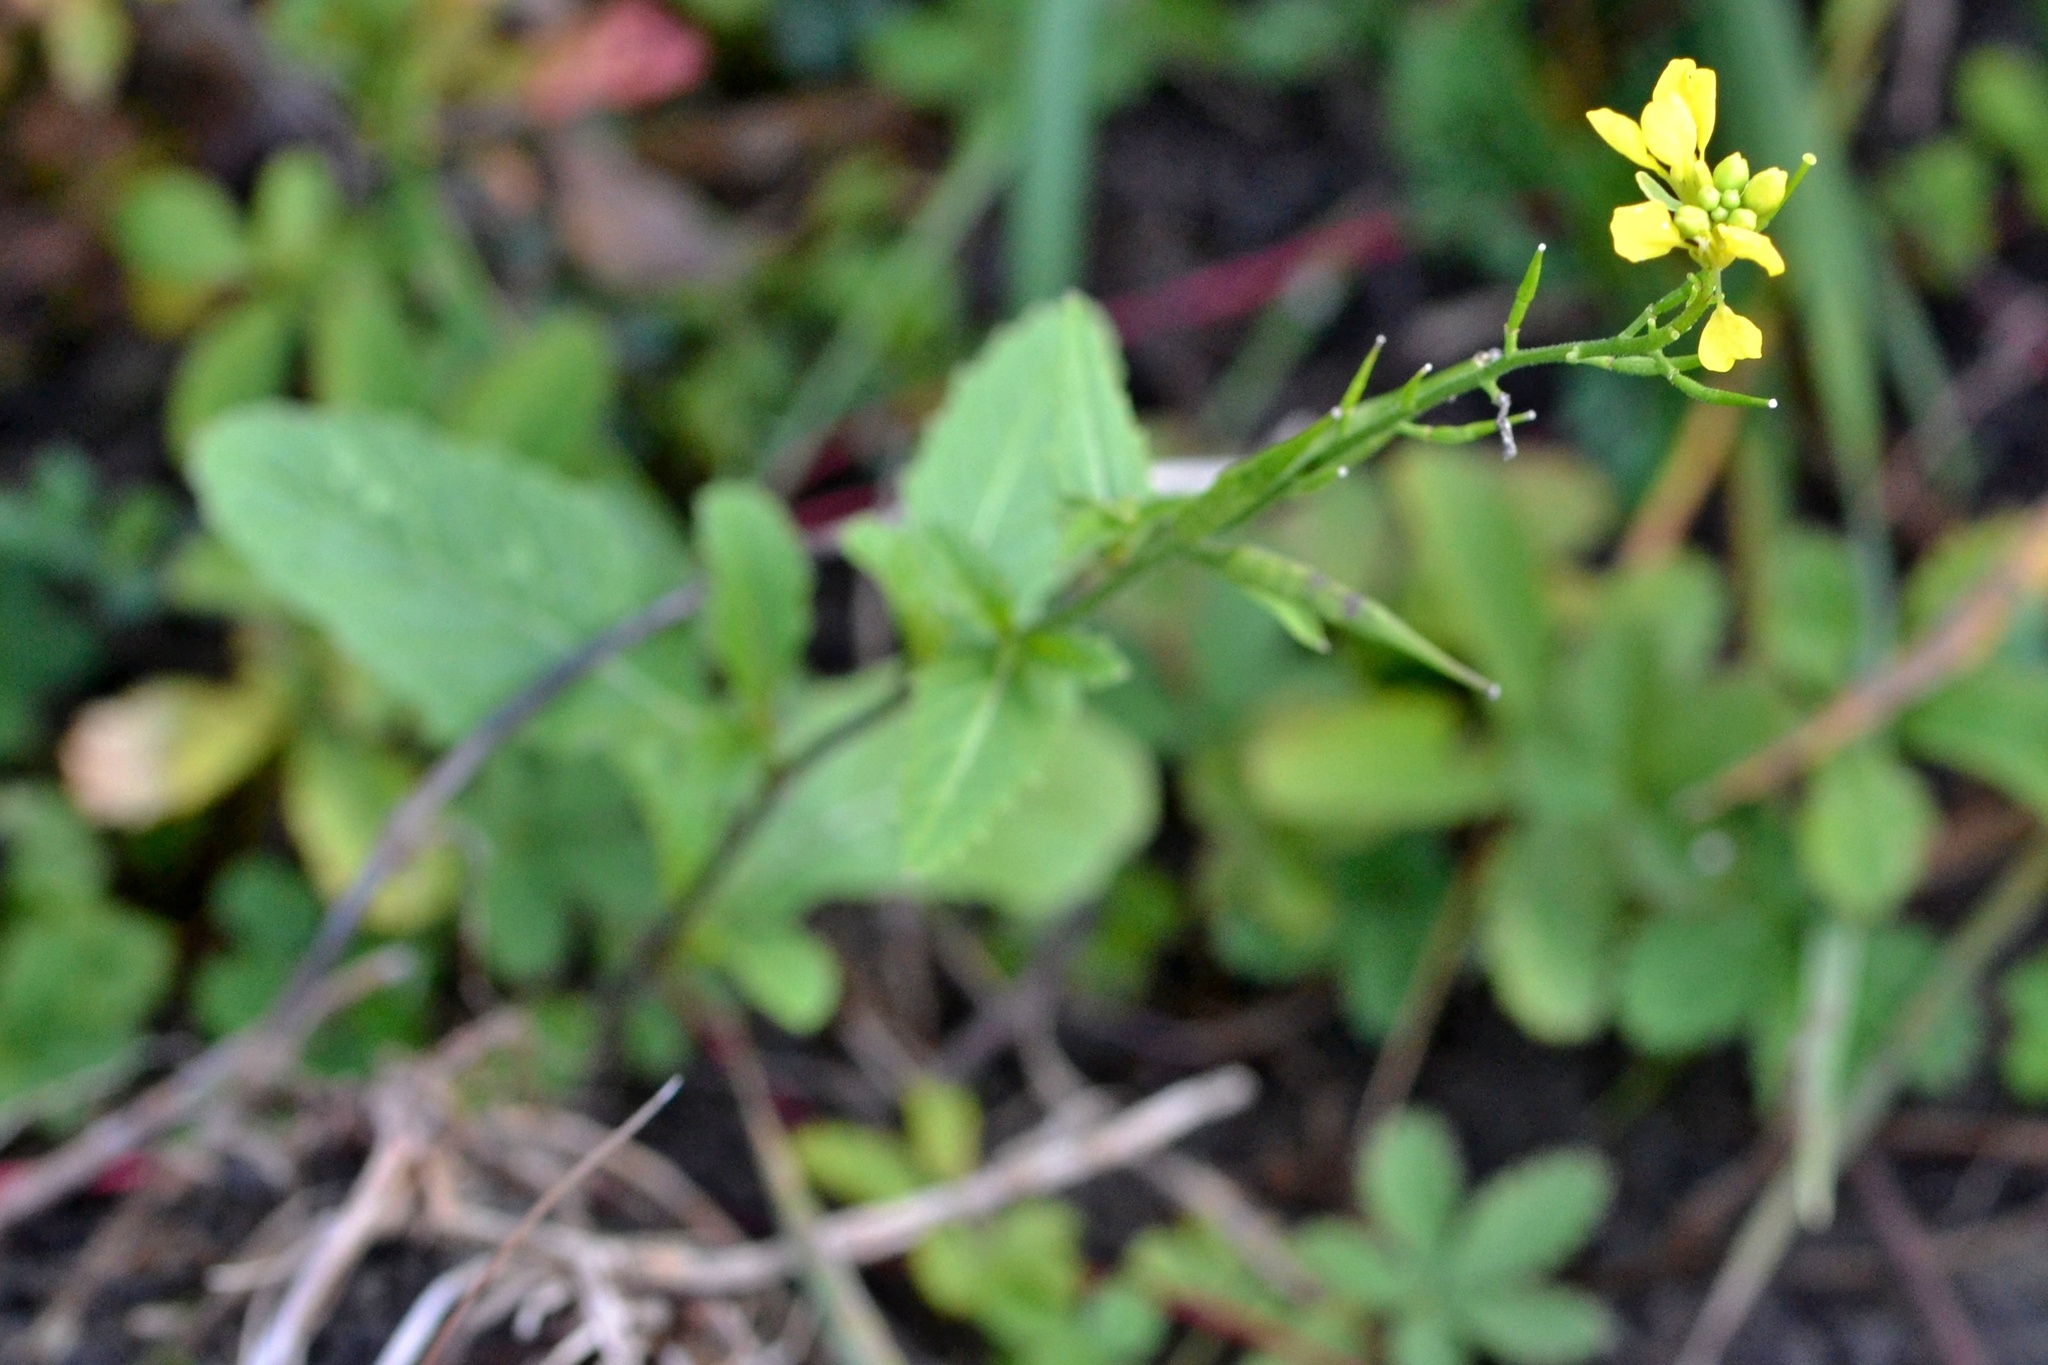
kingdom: Plantae
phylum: Tracheophyta
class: Magnoliopsida
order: Brassicales
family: Brassicaceae
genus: Sinapis
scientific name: Sinapis arvensis
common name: Charlock
